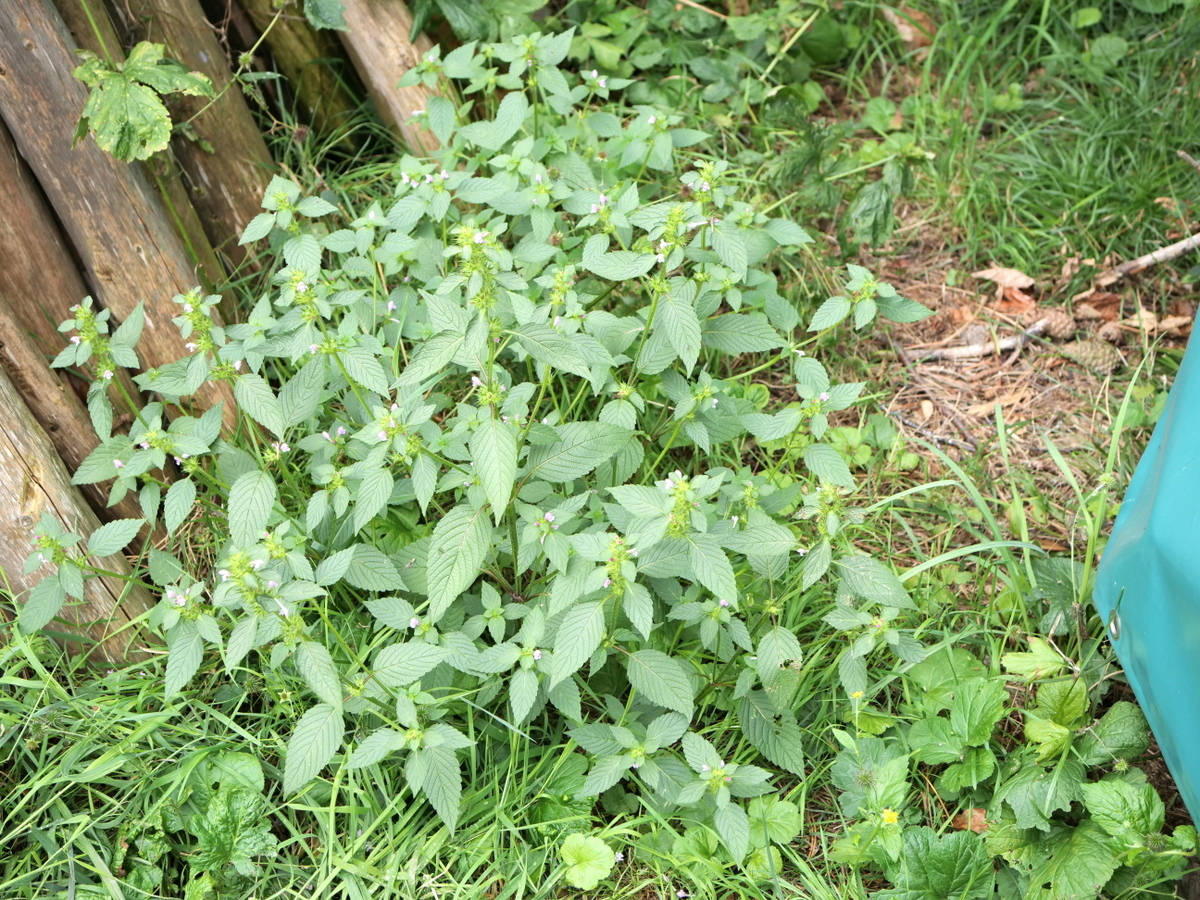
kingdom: Plantae
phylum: Tracheophyta
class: Magnoliopsida
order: Lamiales
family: Lamiaceae
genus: Galeopsis
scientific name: Galeopsis tetrahit
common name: Common hemp-nettle
